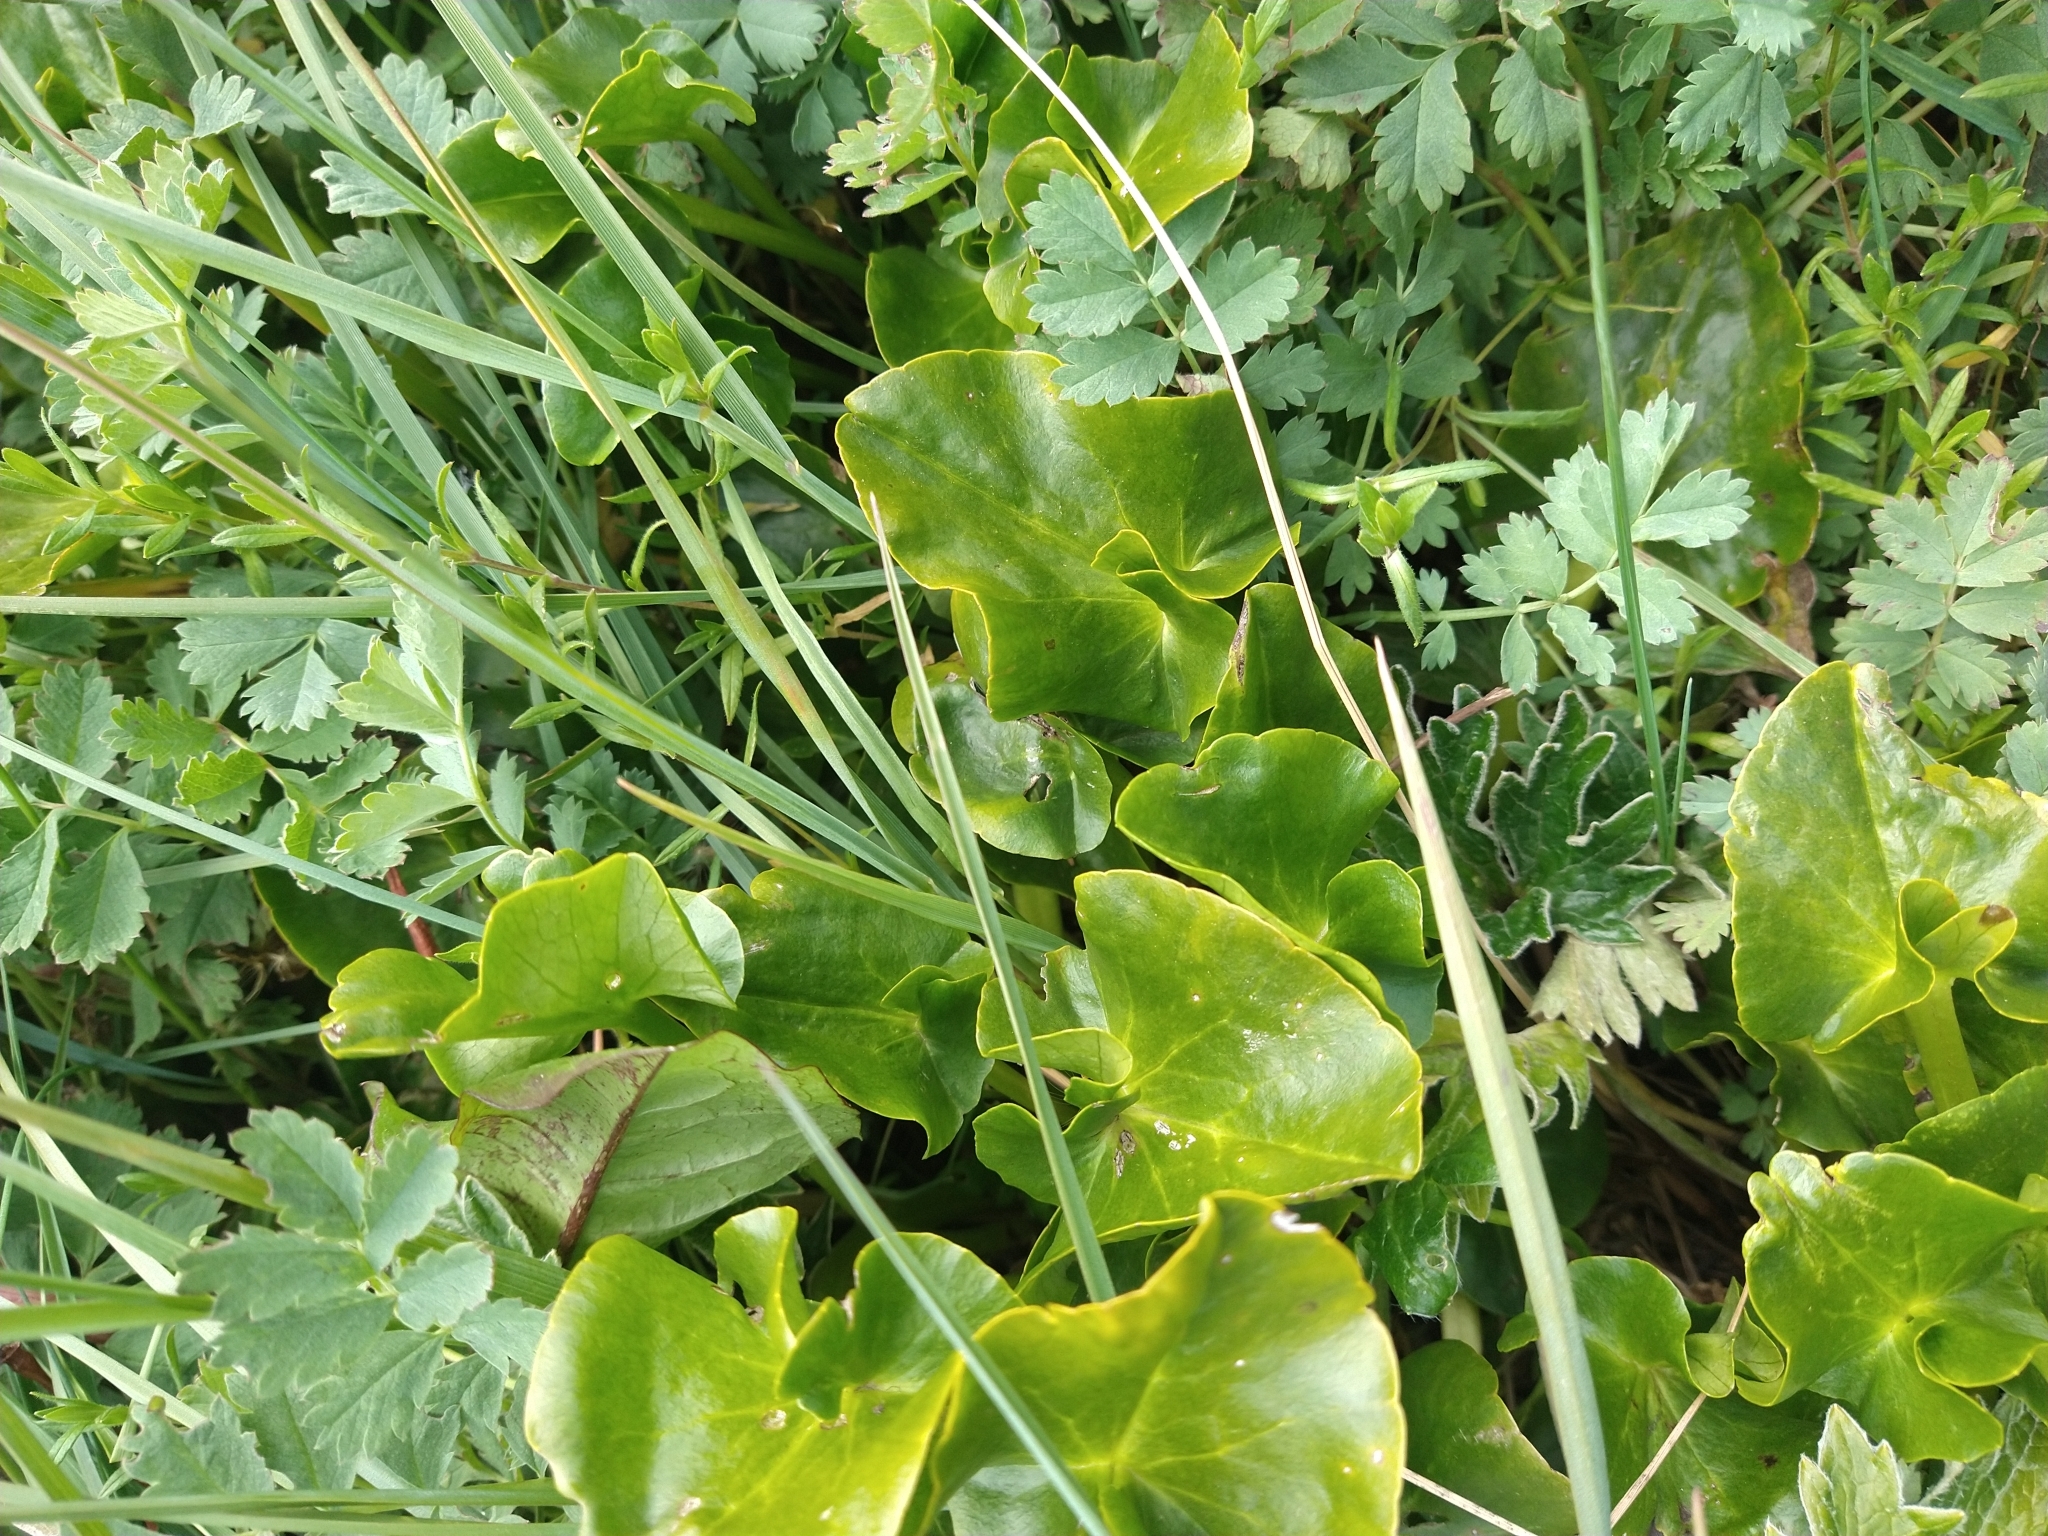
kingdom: Plantae
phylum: Tracheophyta
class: Magnoliopsida
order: Ranunculales
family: Ranunculaceae
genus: Caltha
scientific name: Caltha sagittata
